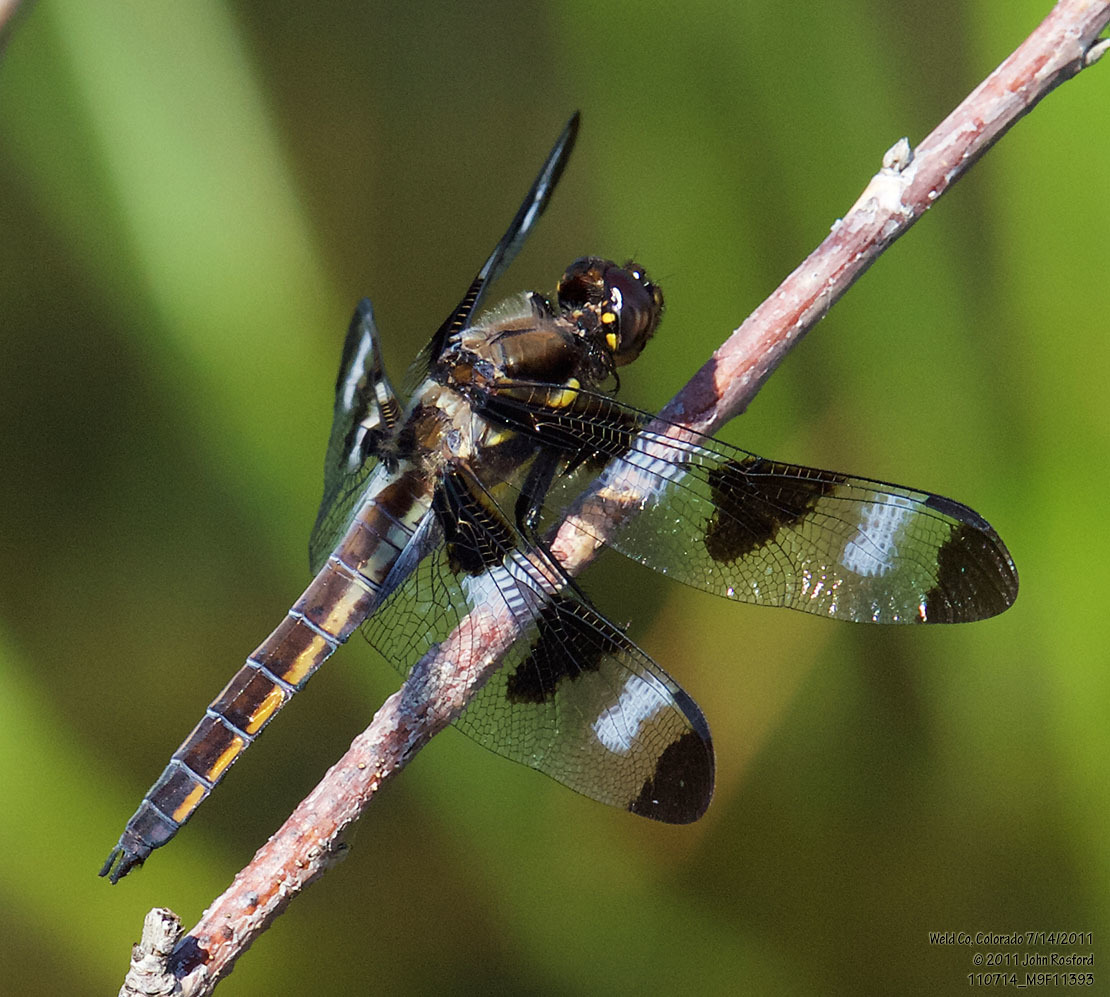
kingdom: Animalia
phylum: Arthropoda
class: Insecta
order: Odonata
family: Libellulidae
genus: Libellula
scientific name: Libellula pulchella
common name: Twelve-spotted skimmer
